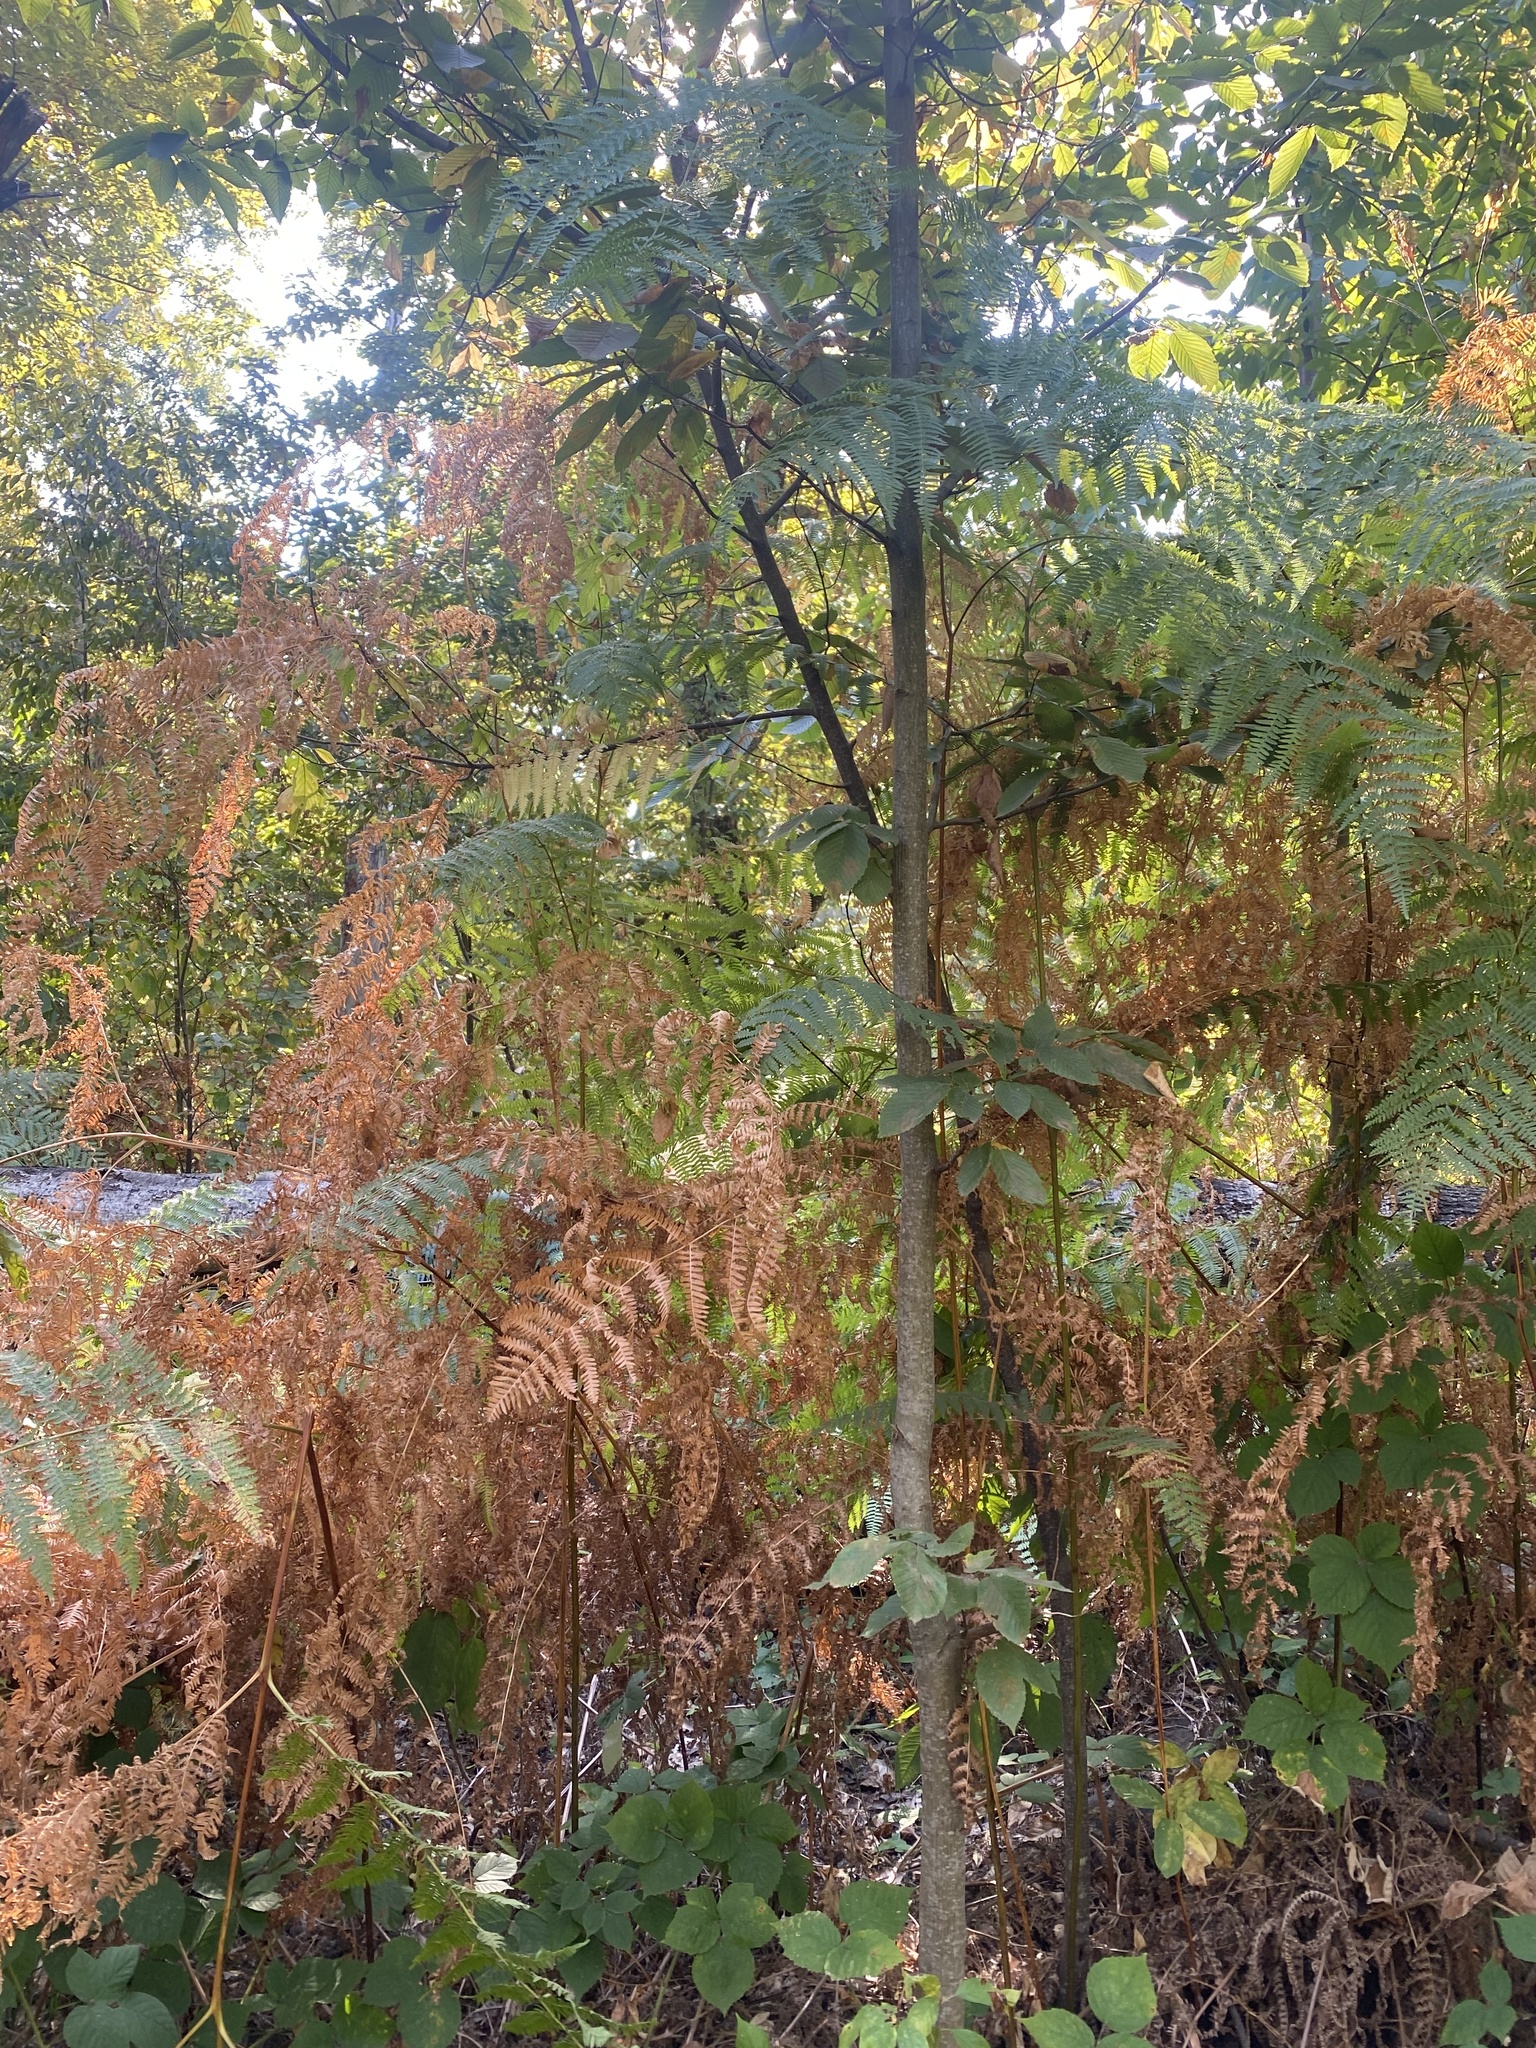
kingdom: Plantae
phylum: Tracheophyta
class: Polypodiopsida
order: Polypodiales
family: Dennstaedtiaceae
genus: Pteridium
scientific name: Pteridium tauricum
